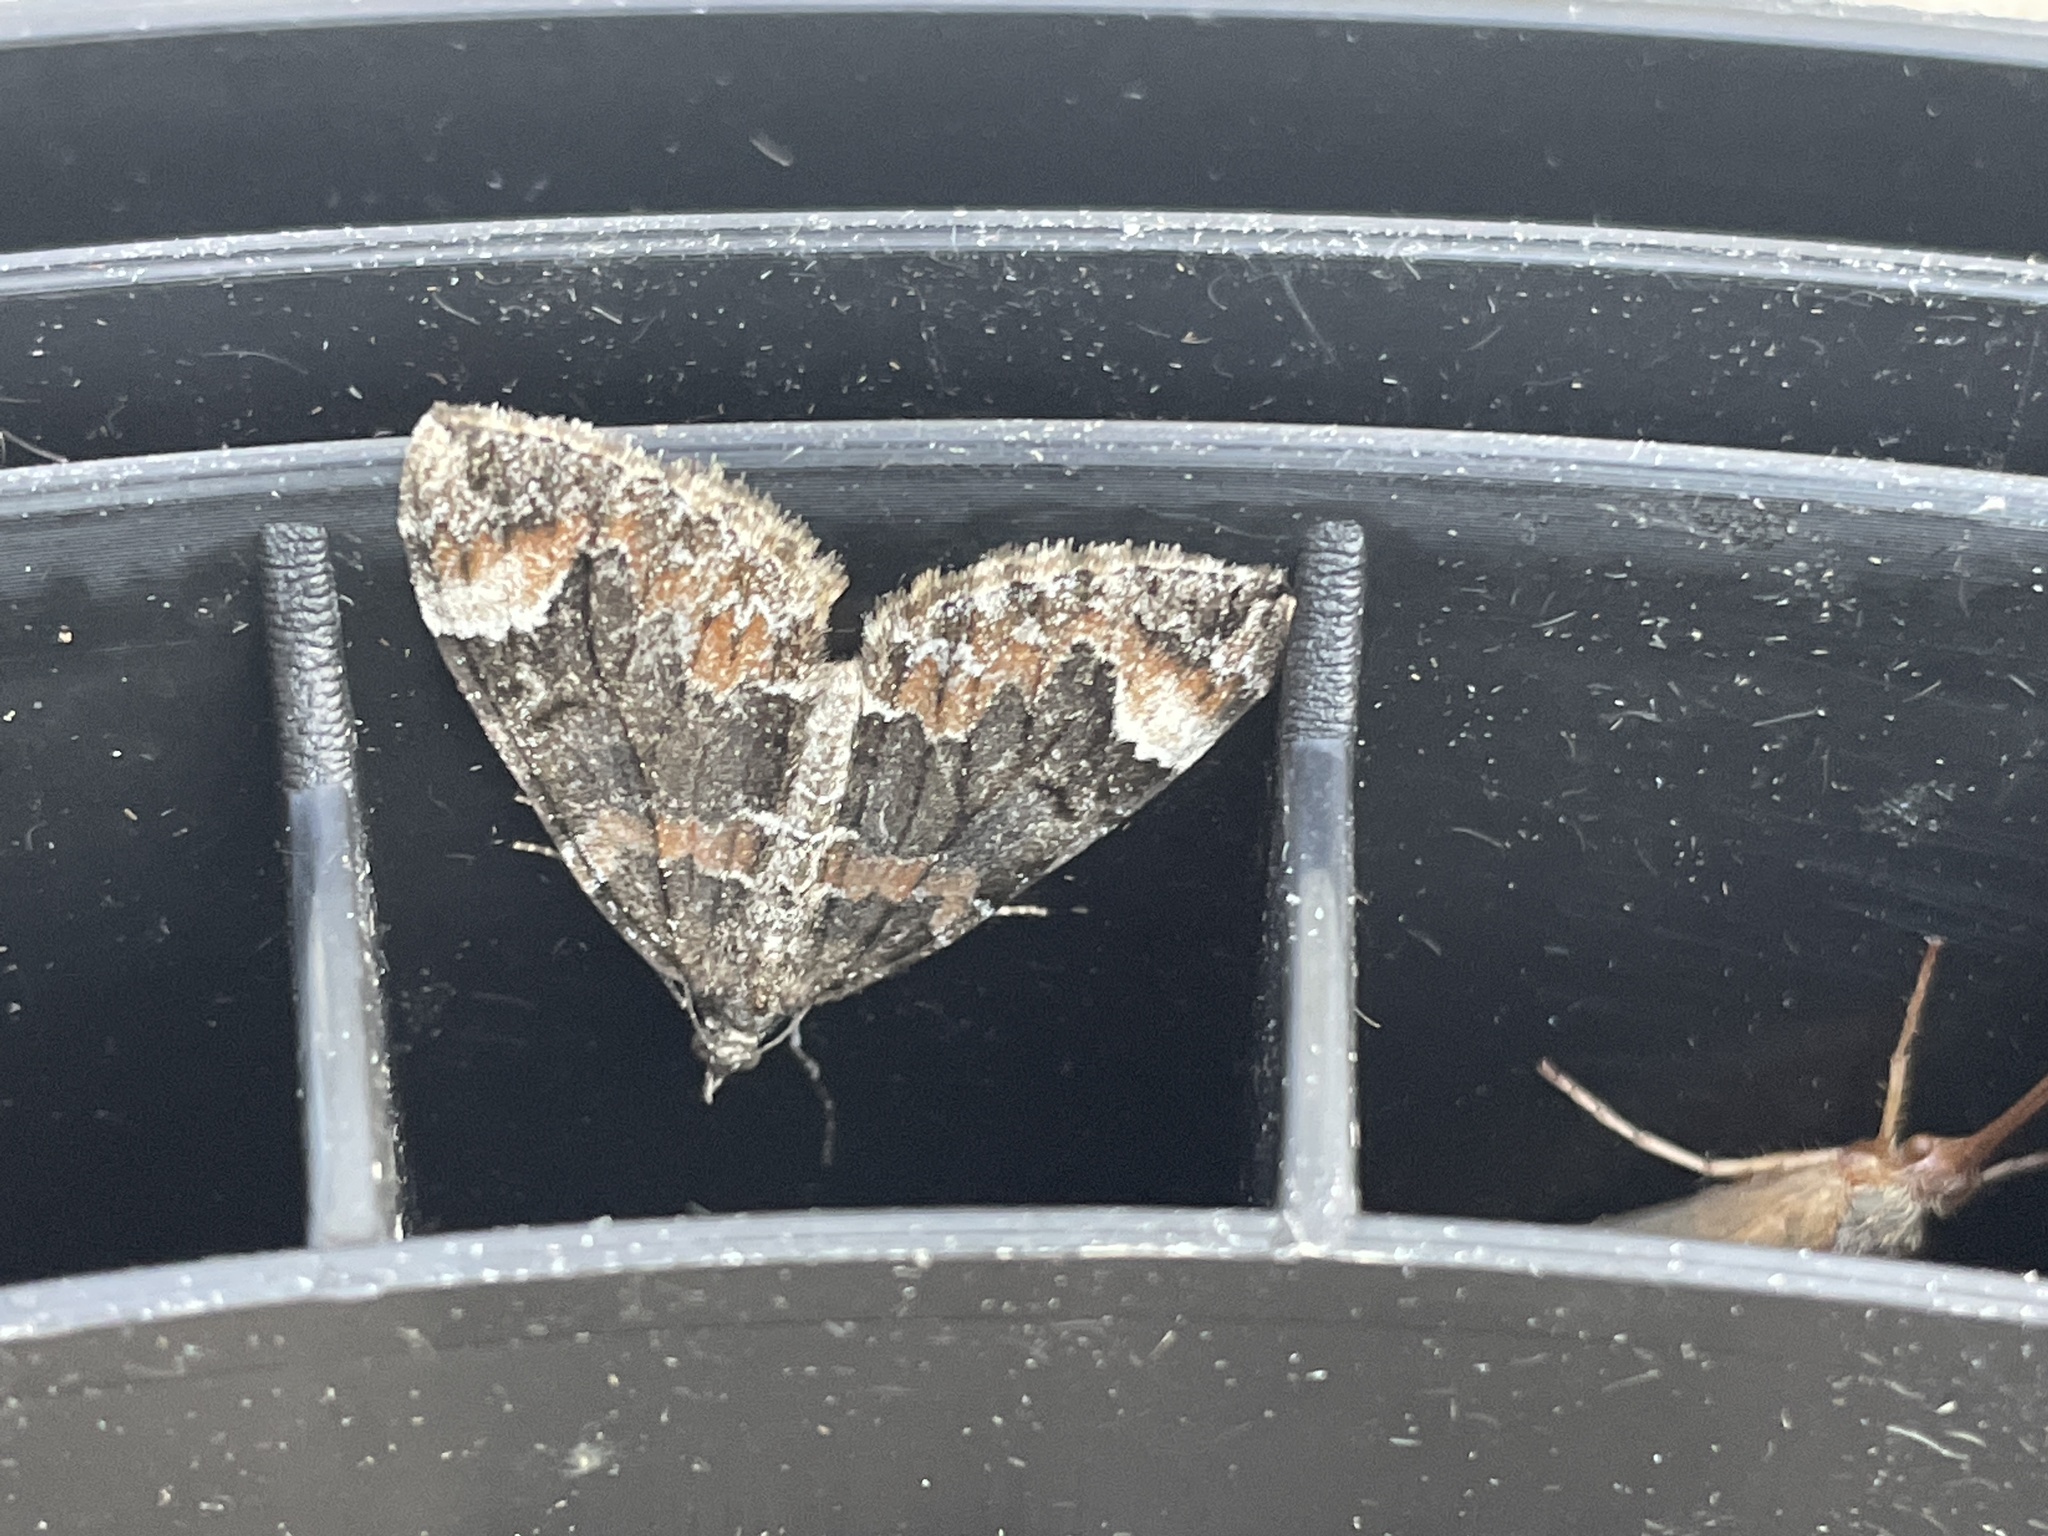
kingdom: Animalia
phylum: Arthropoda
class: Insecta
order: Lepidoptera
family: Geometridae
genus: Dysstroma
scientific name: Dysstroma citrata
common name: Dark marbled carpet
